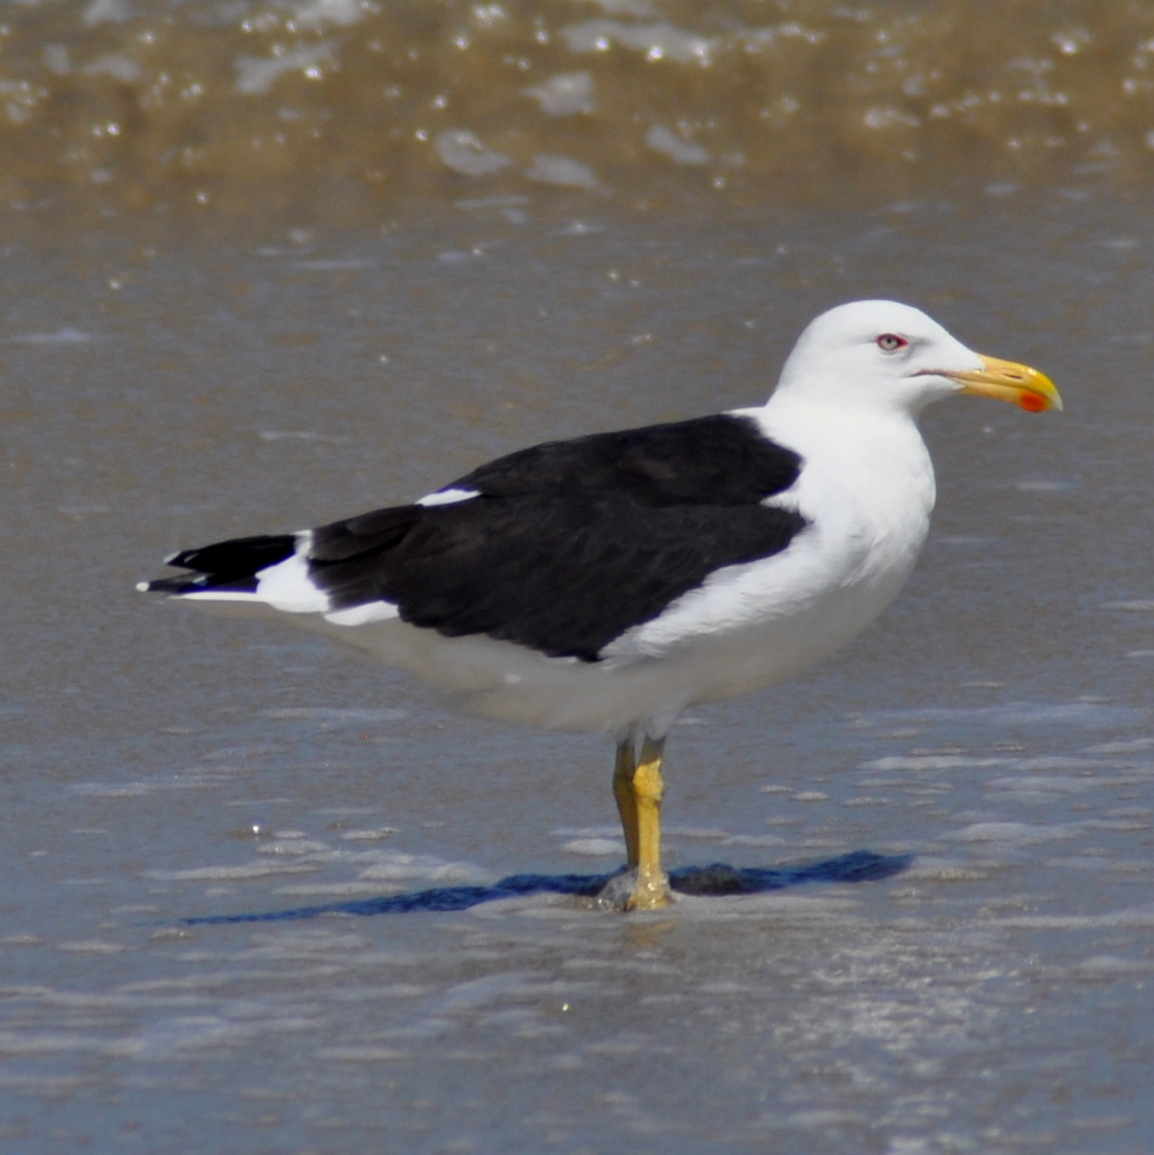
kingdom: Animalia
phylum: Chordata
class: Aves
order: Charadriiformes
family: Laridae
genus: Larus
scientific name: Larus dominicanus
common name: Kelp gull
